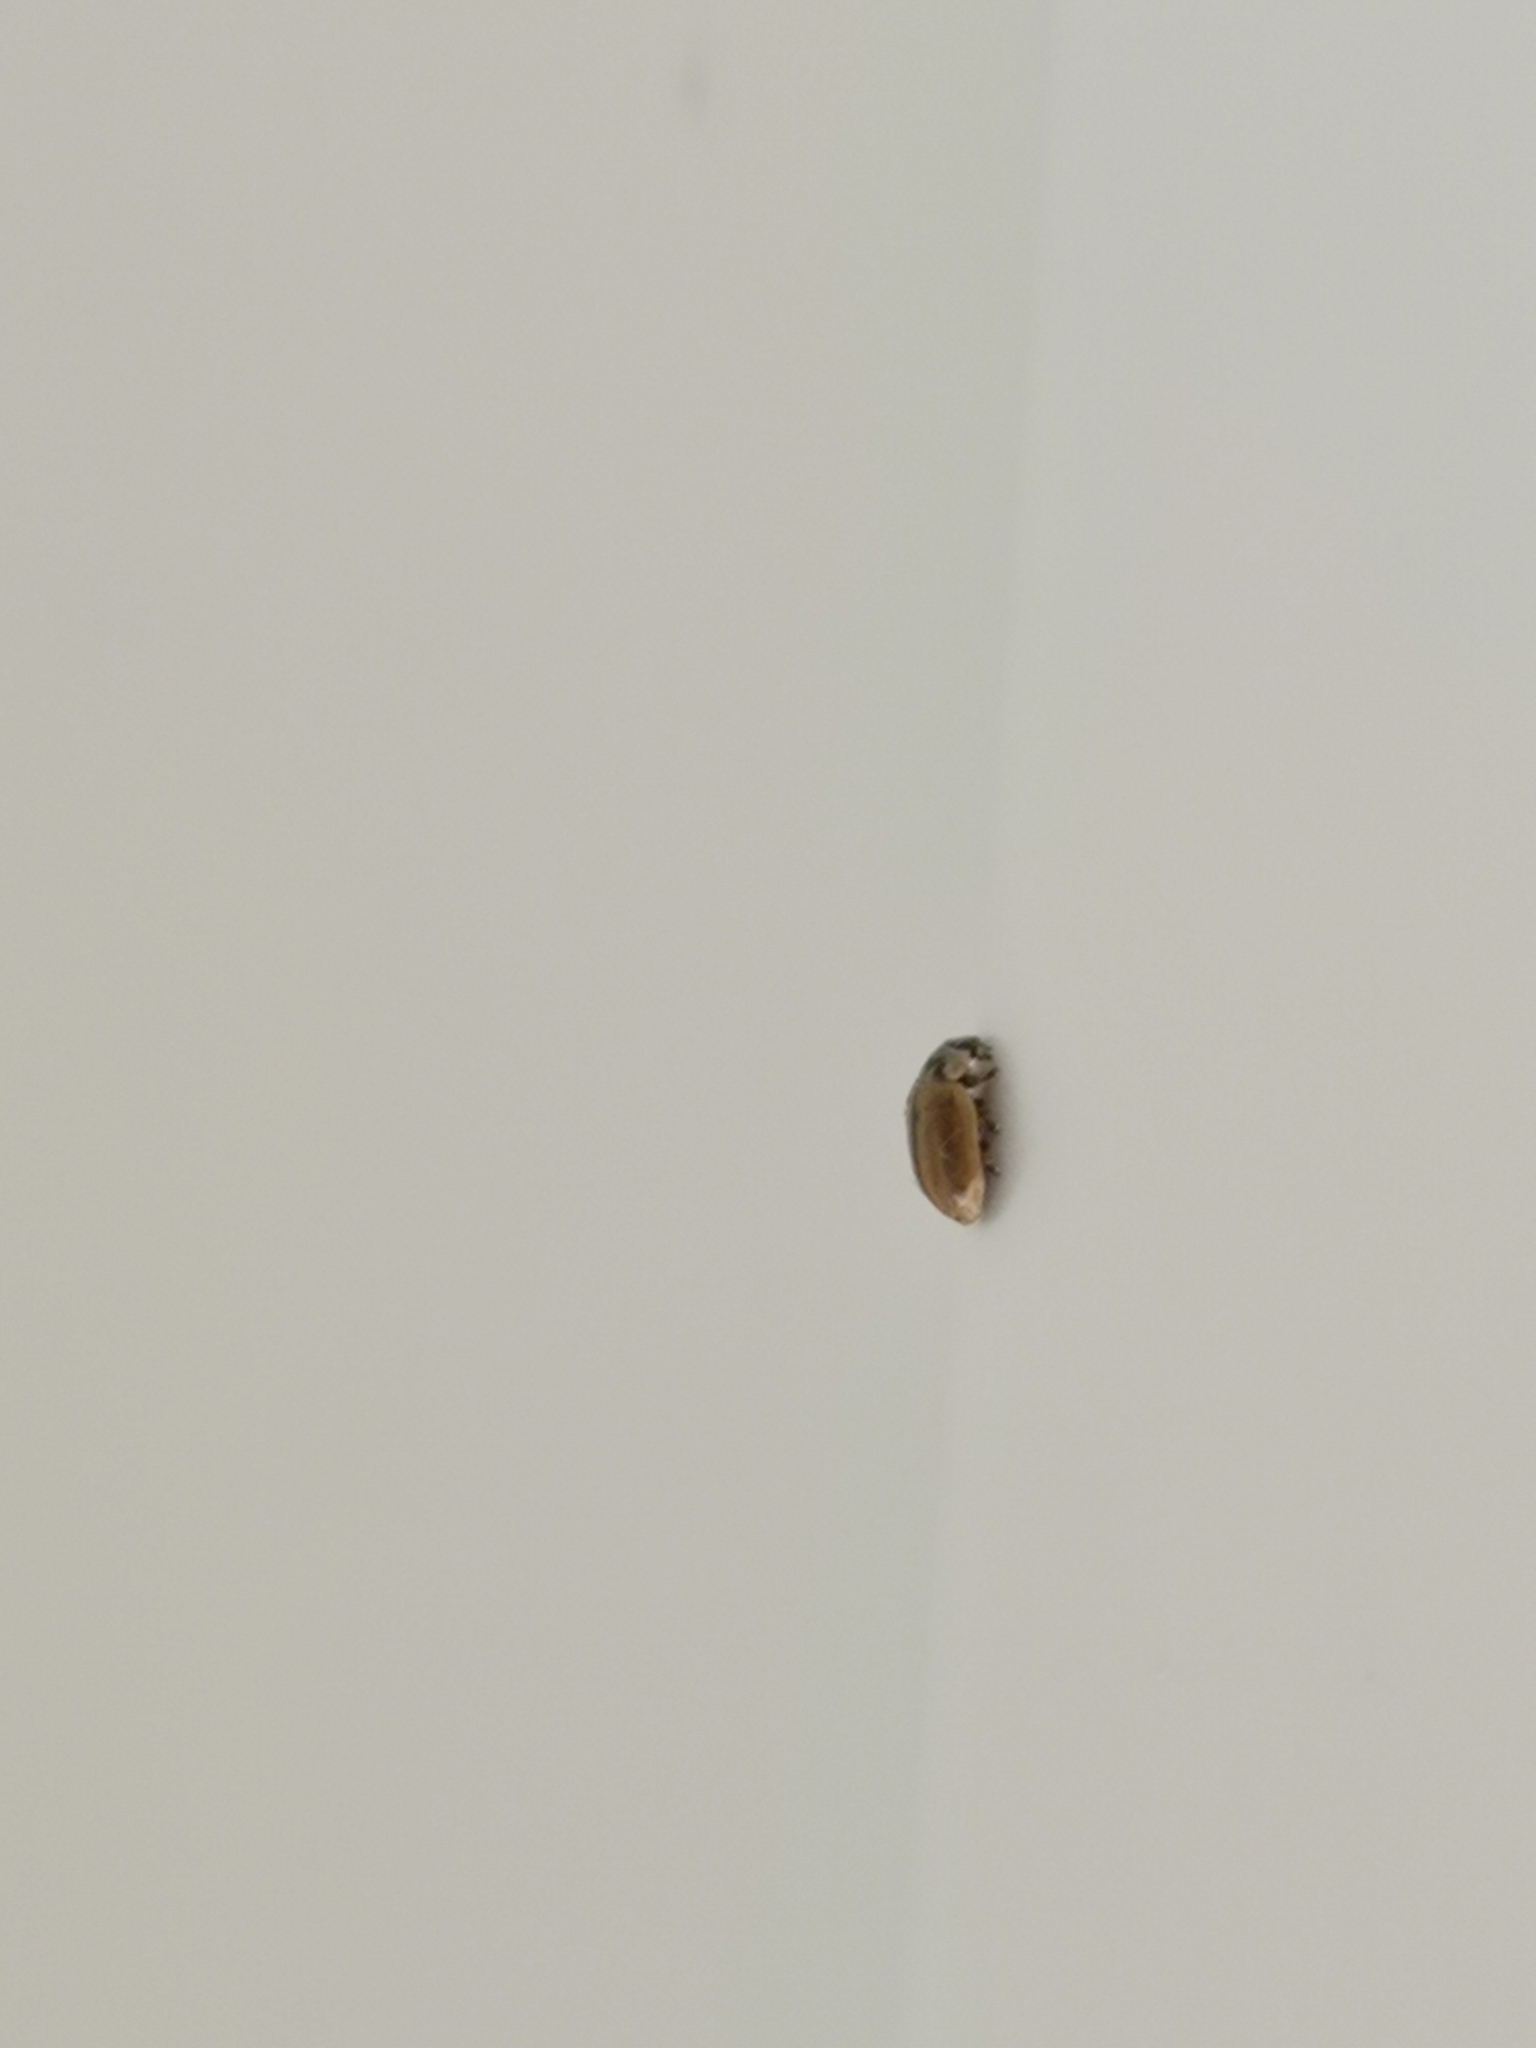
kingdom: Animalia
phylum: Arthropoda
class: Insecta
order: Coleoptera
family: Coccinellidae
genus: Aphidecta
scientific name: Aphidecta obliterata
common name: Larch ladybird
